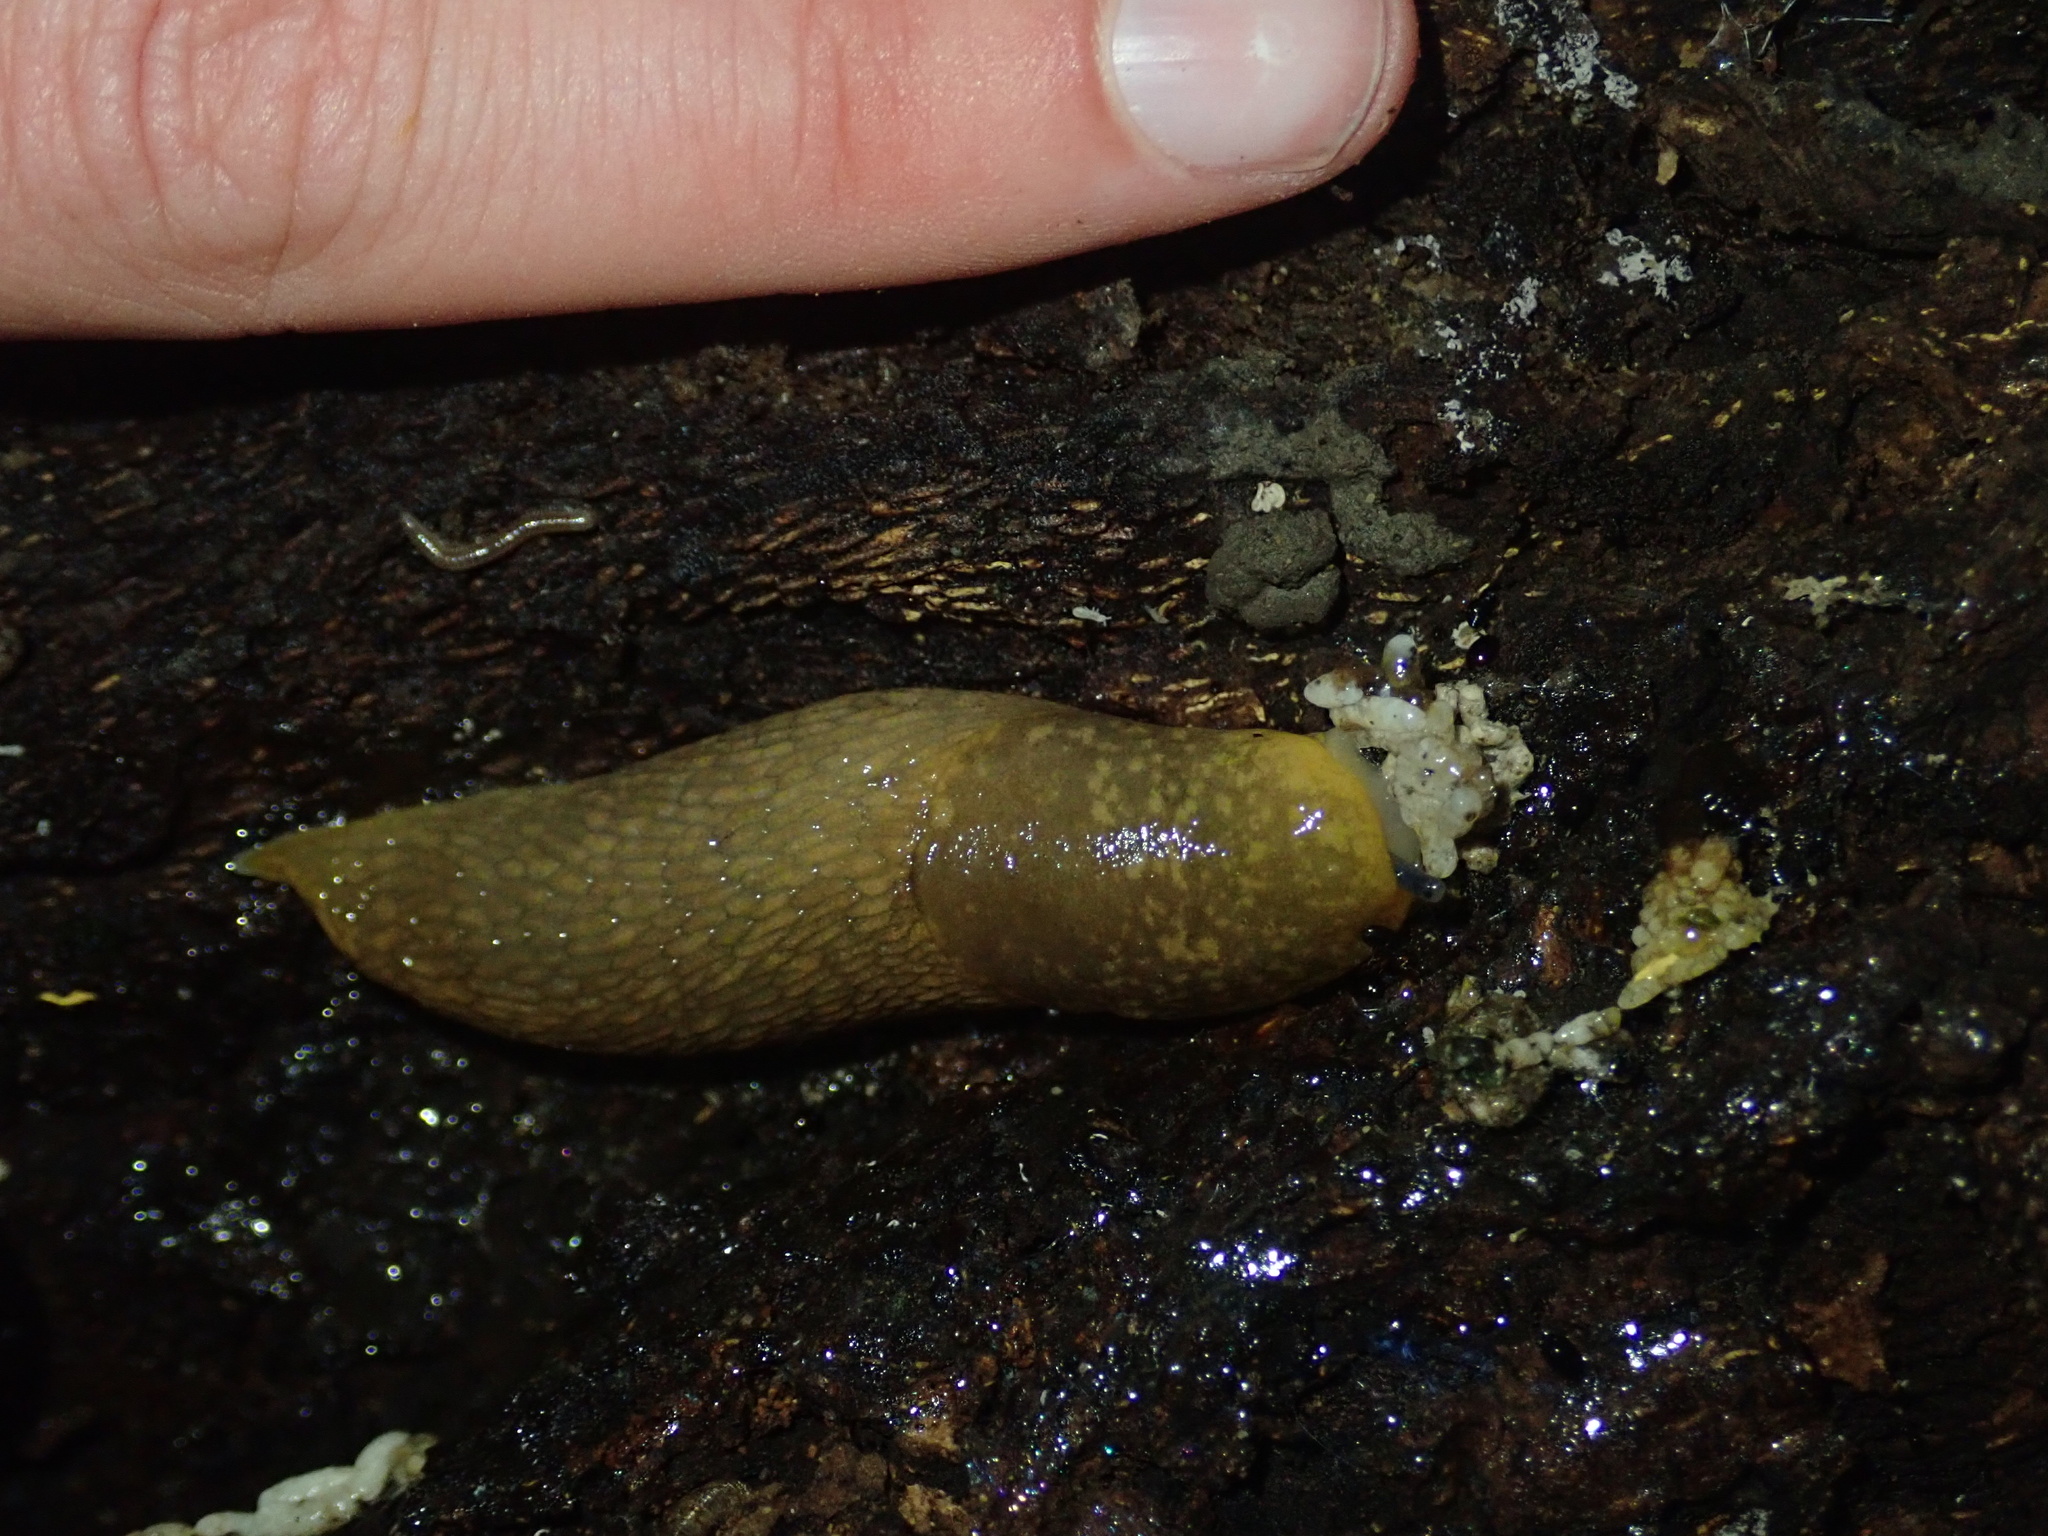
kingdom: Animalia
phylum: Mollusca
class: Gastropoda
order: Stylommatophora
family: Limacidae
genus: Limacus
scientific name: Limacus flavus
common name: Yellow gardenslug
